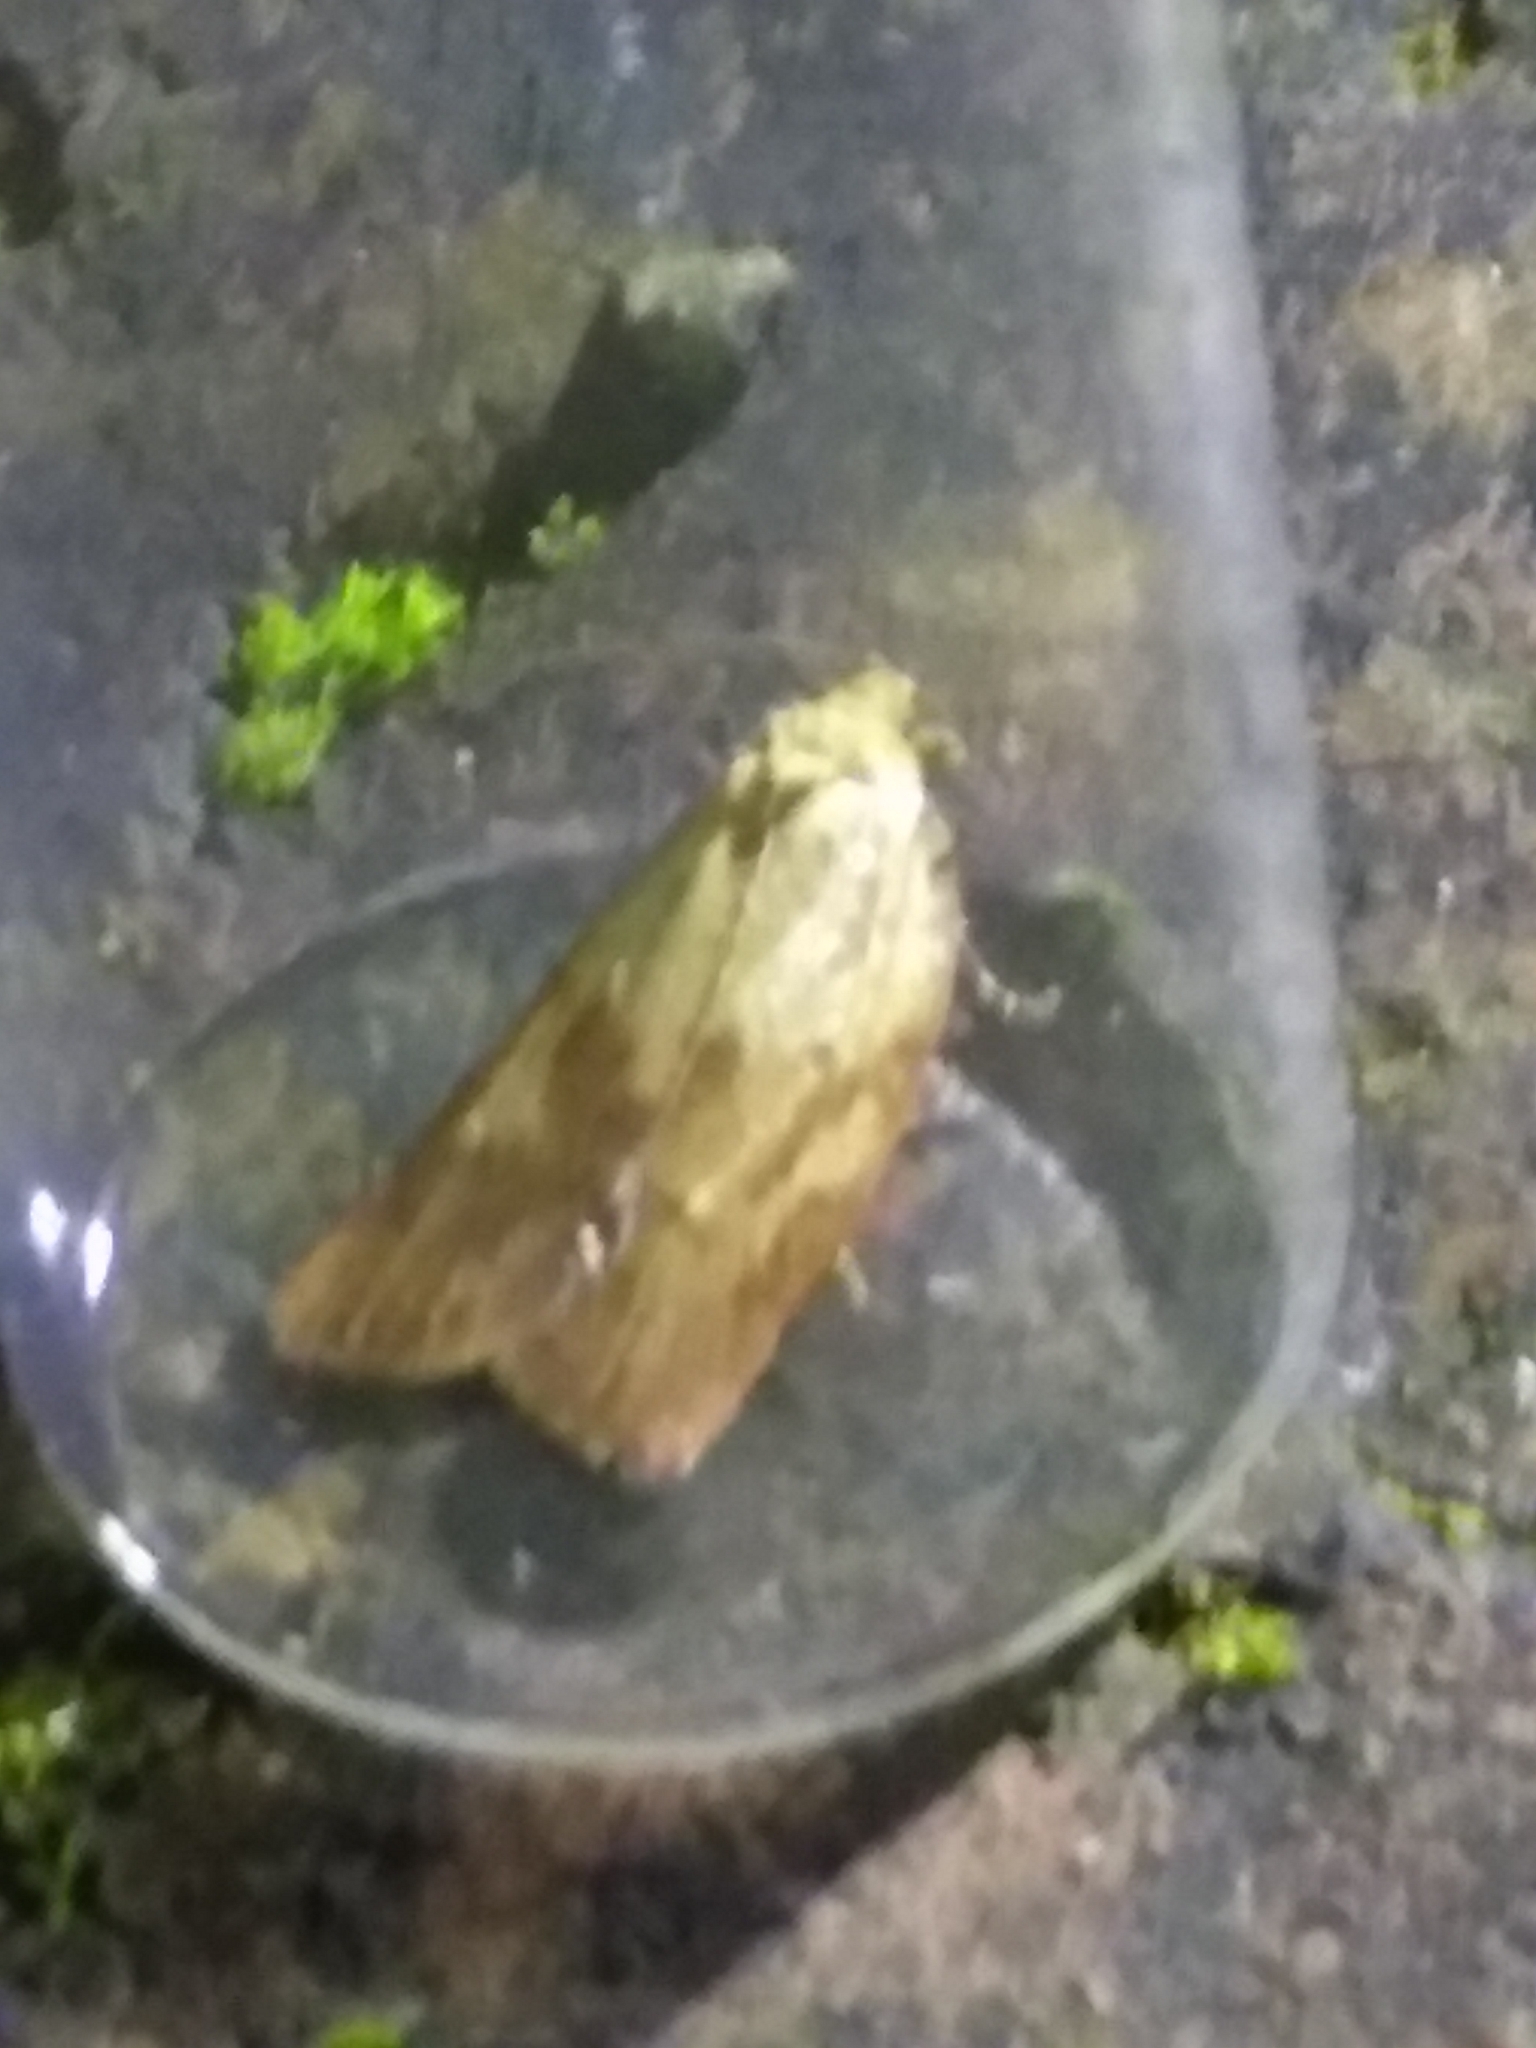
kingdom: Animalia
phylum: Arthropoda
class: Insecta
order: Lepidoptera
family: Tortricidae
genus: Epiphyas
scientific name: Epiphyas postvittana
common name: Light brown apple moth
